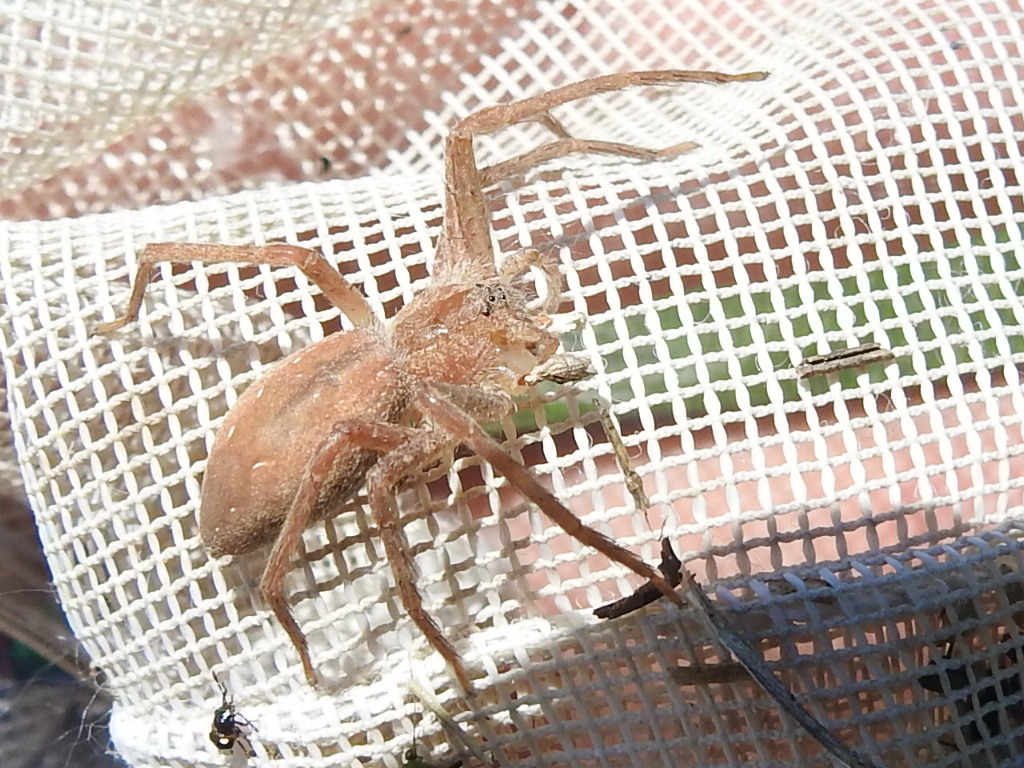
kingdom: Animalia
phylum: Arthropoda
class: Arachnida
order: Araneae
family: Pisauridae
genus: Pisaurina
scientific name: Pisaurina mira
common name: American nursery web spider
